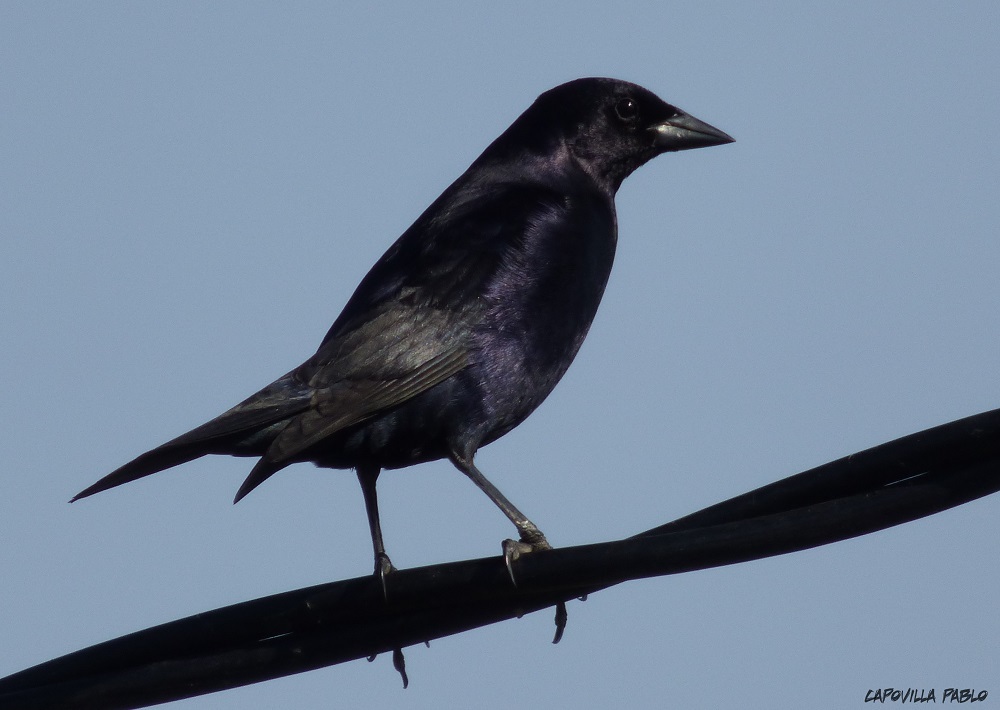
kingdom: Animalia
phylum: Chordata
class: Aves
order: Passeriformes
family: Icteridae
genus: Molothrus
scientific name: Molothrus bonariensis
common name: Shiny cowbird
